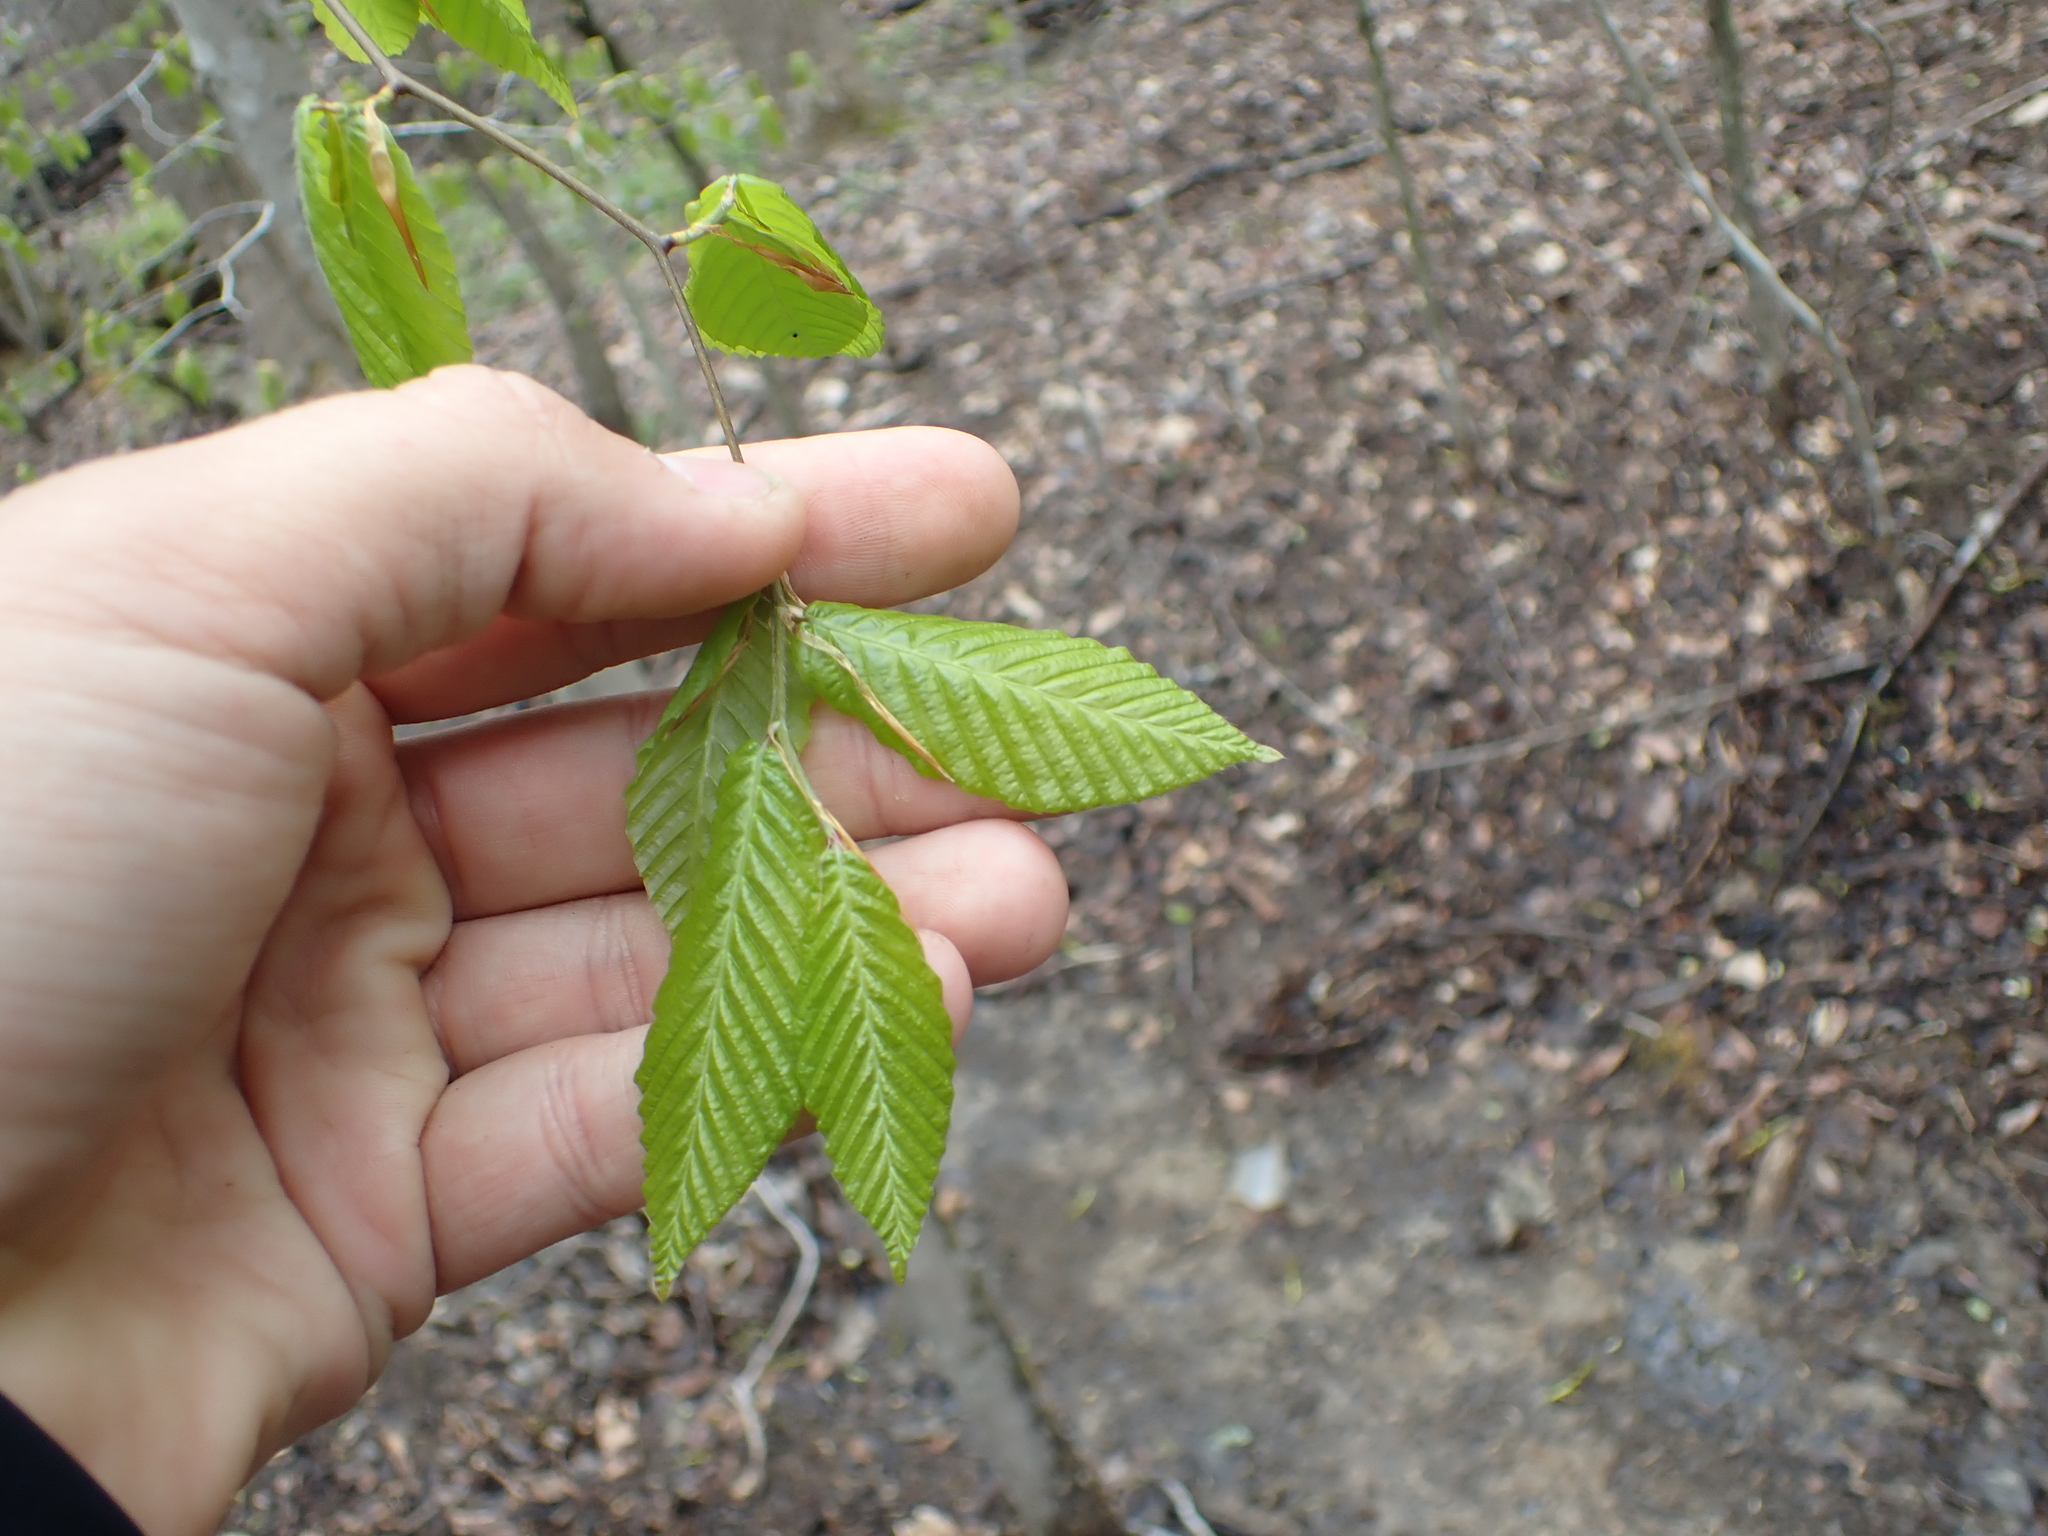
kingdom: Plantae
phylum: Tracheophyta
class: Magnoliopsida
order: Fagales
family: Fagaceae
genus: Fagus
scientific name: Fagus grandifolia
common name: American beech
